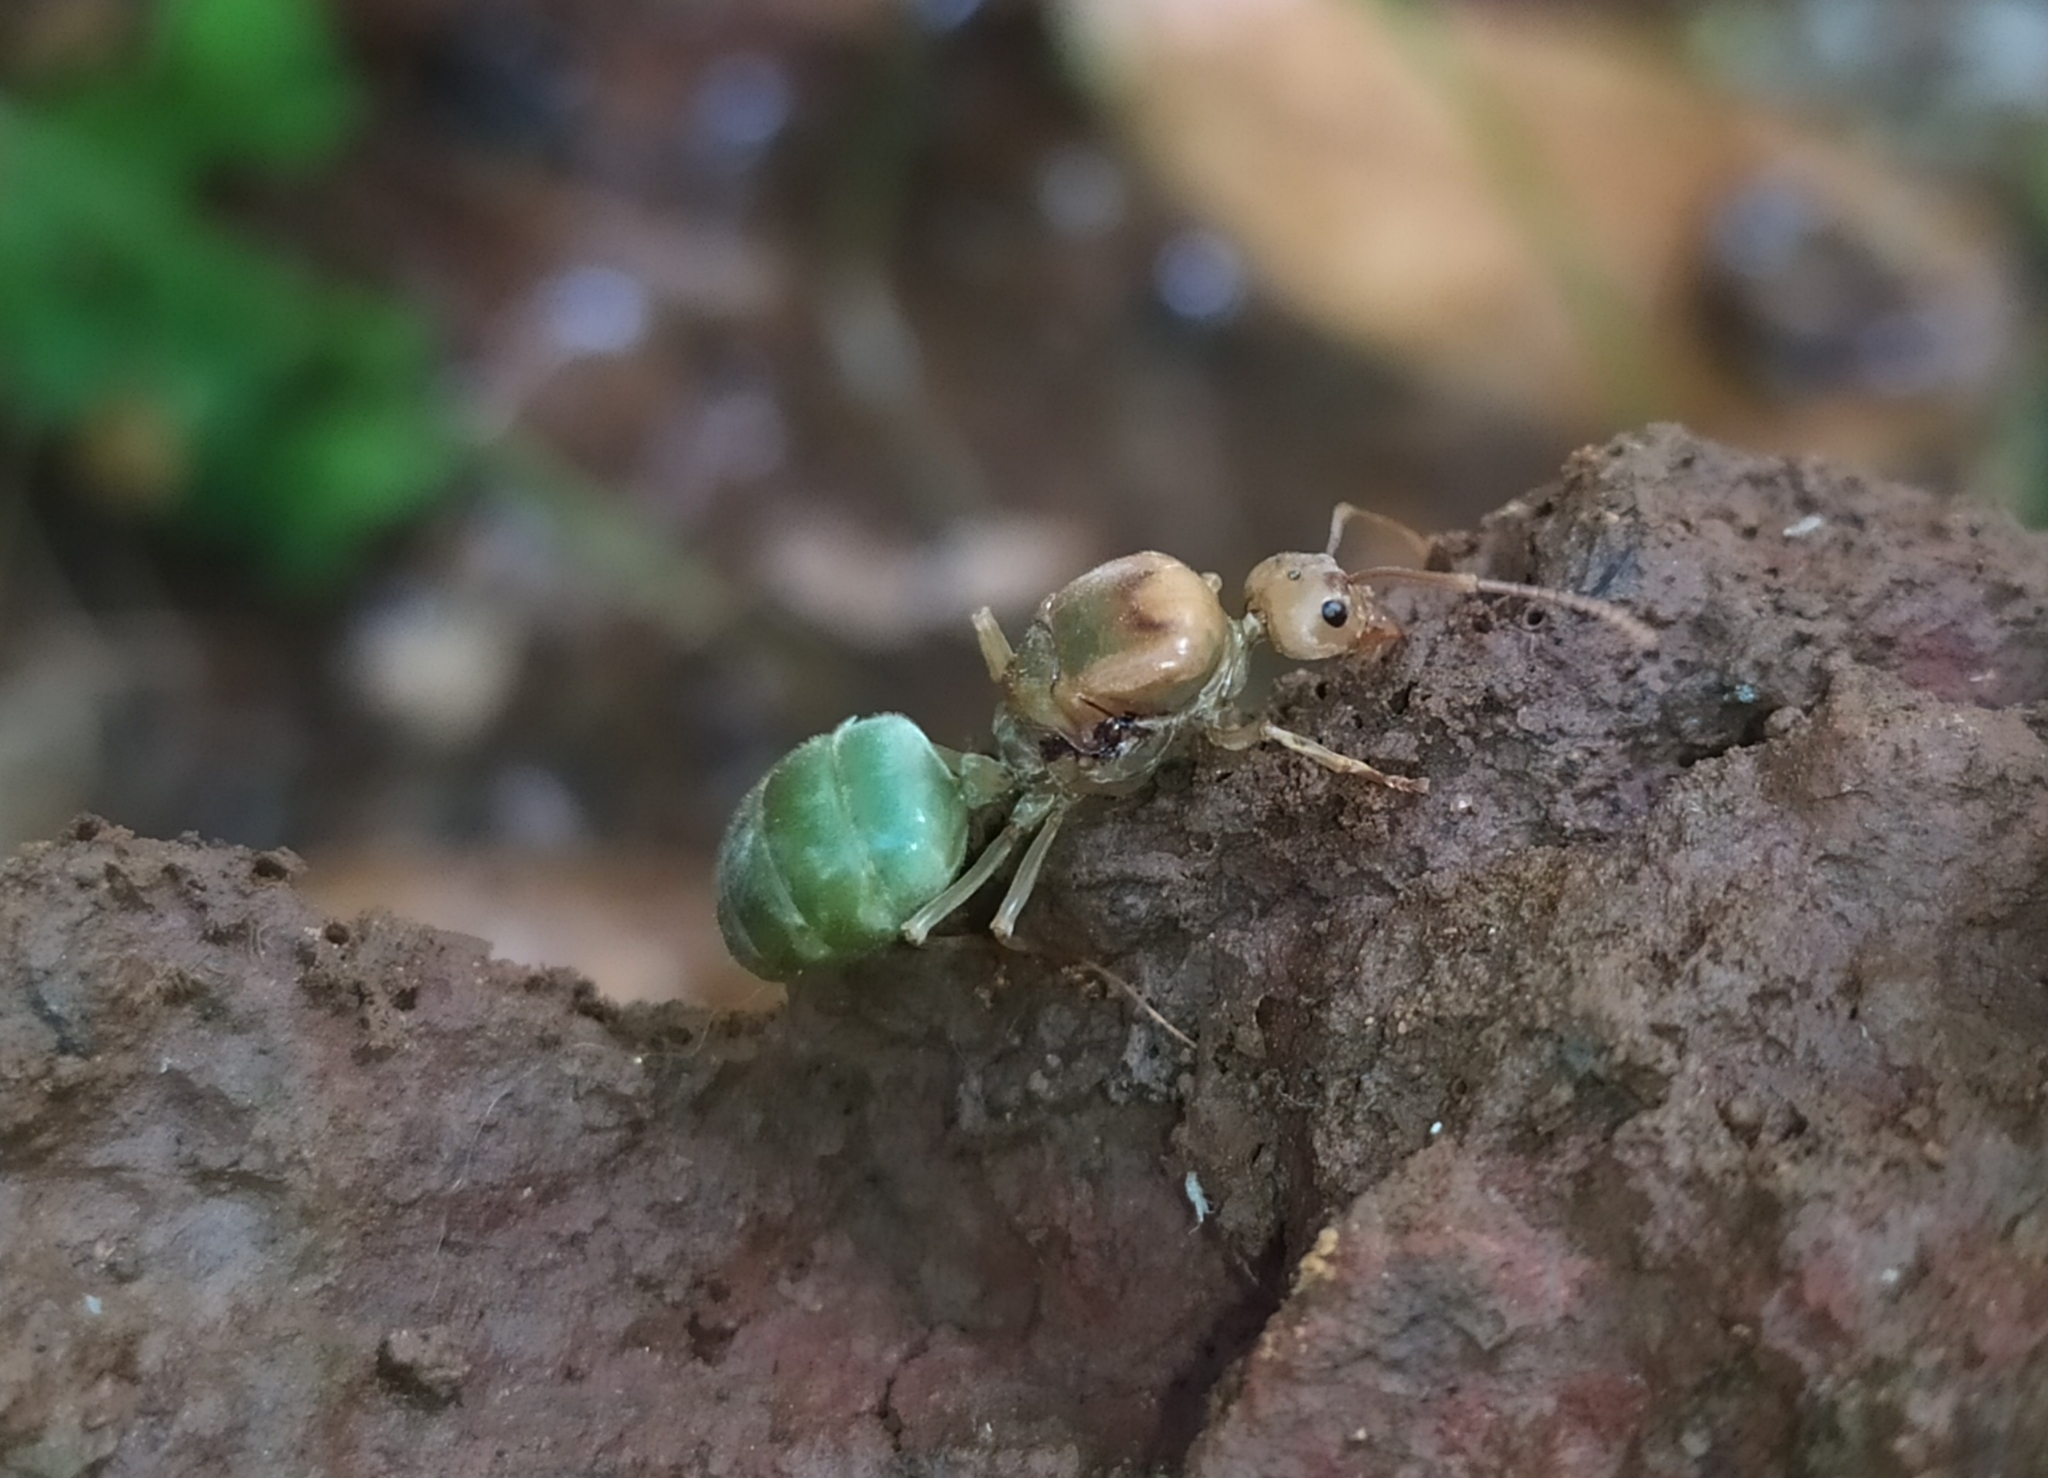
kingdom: Animalia
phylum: Arthropoda
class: Insecta
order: Hymenoptera
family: Formicidae
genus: Oecophylla
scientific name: Oecophylla smaragdina
